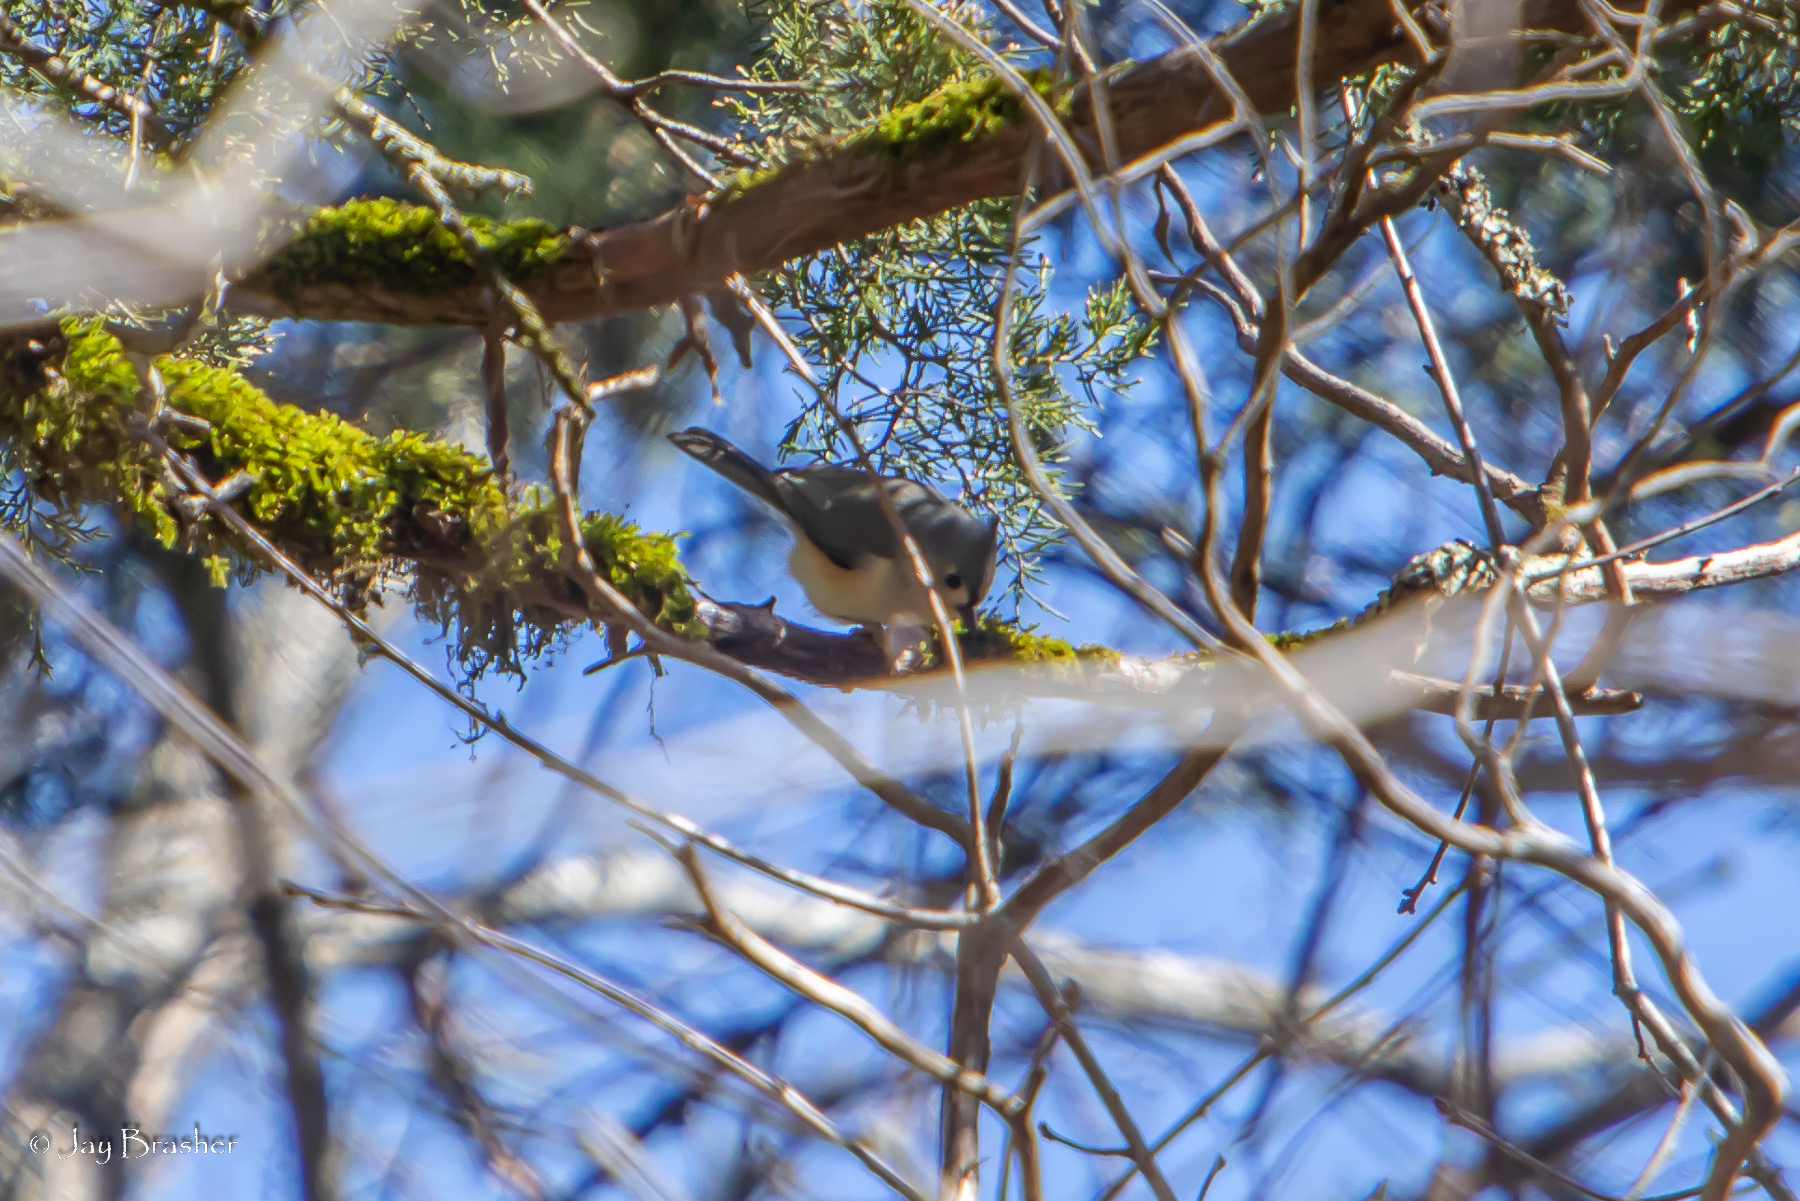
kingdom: Animalia
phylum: Chordata
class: Aves
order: Passeriformes
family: Paridae
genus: Baeolophus
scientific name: Baeolophus bicolor
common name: Tufted titmouse
